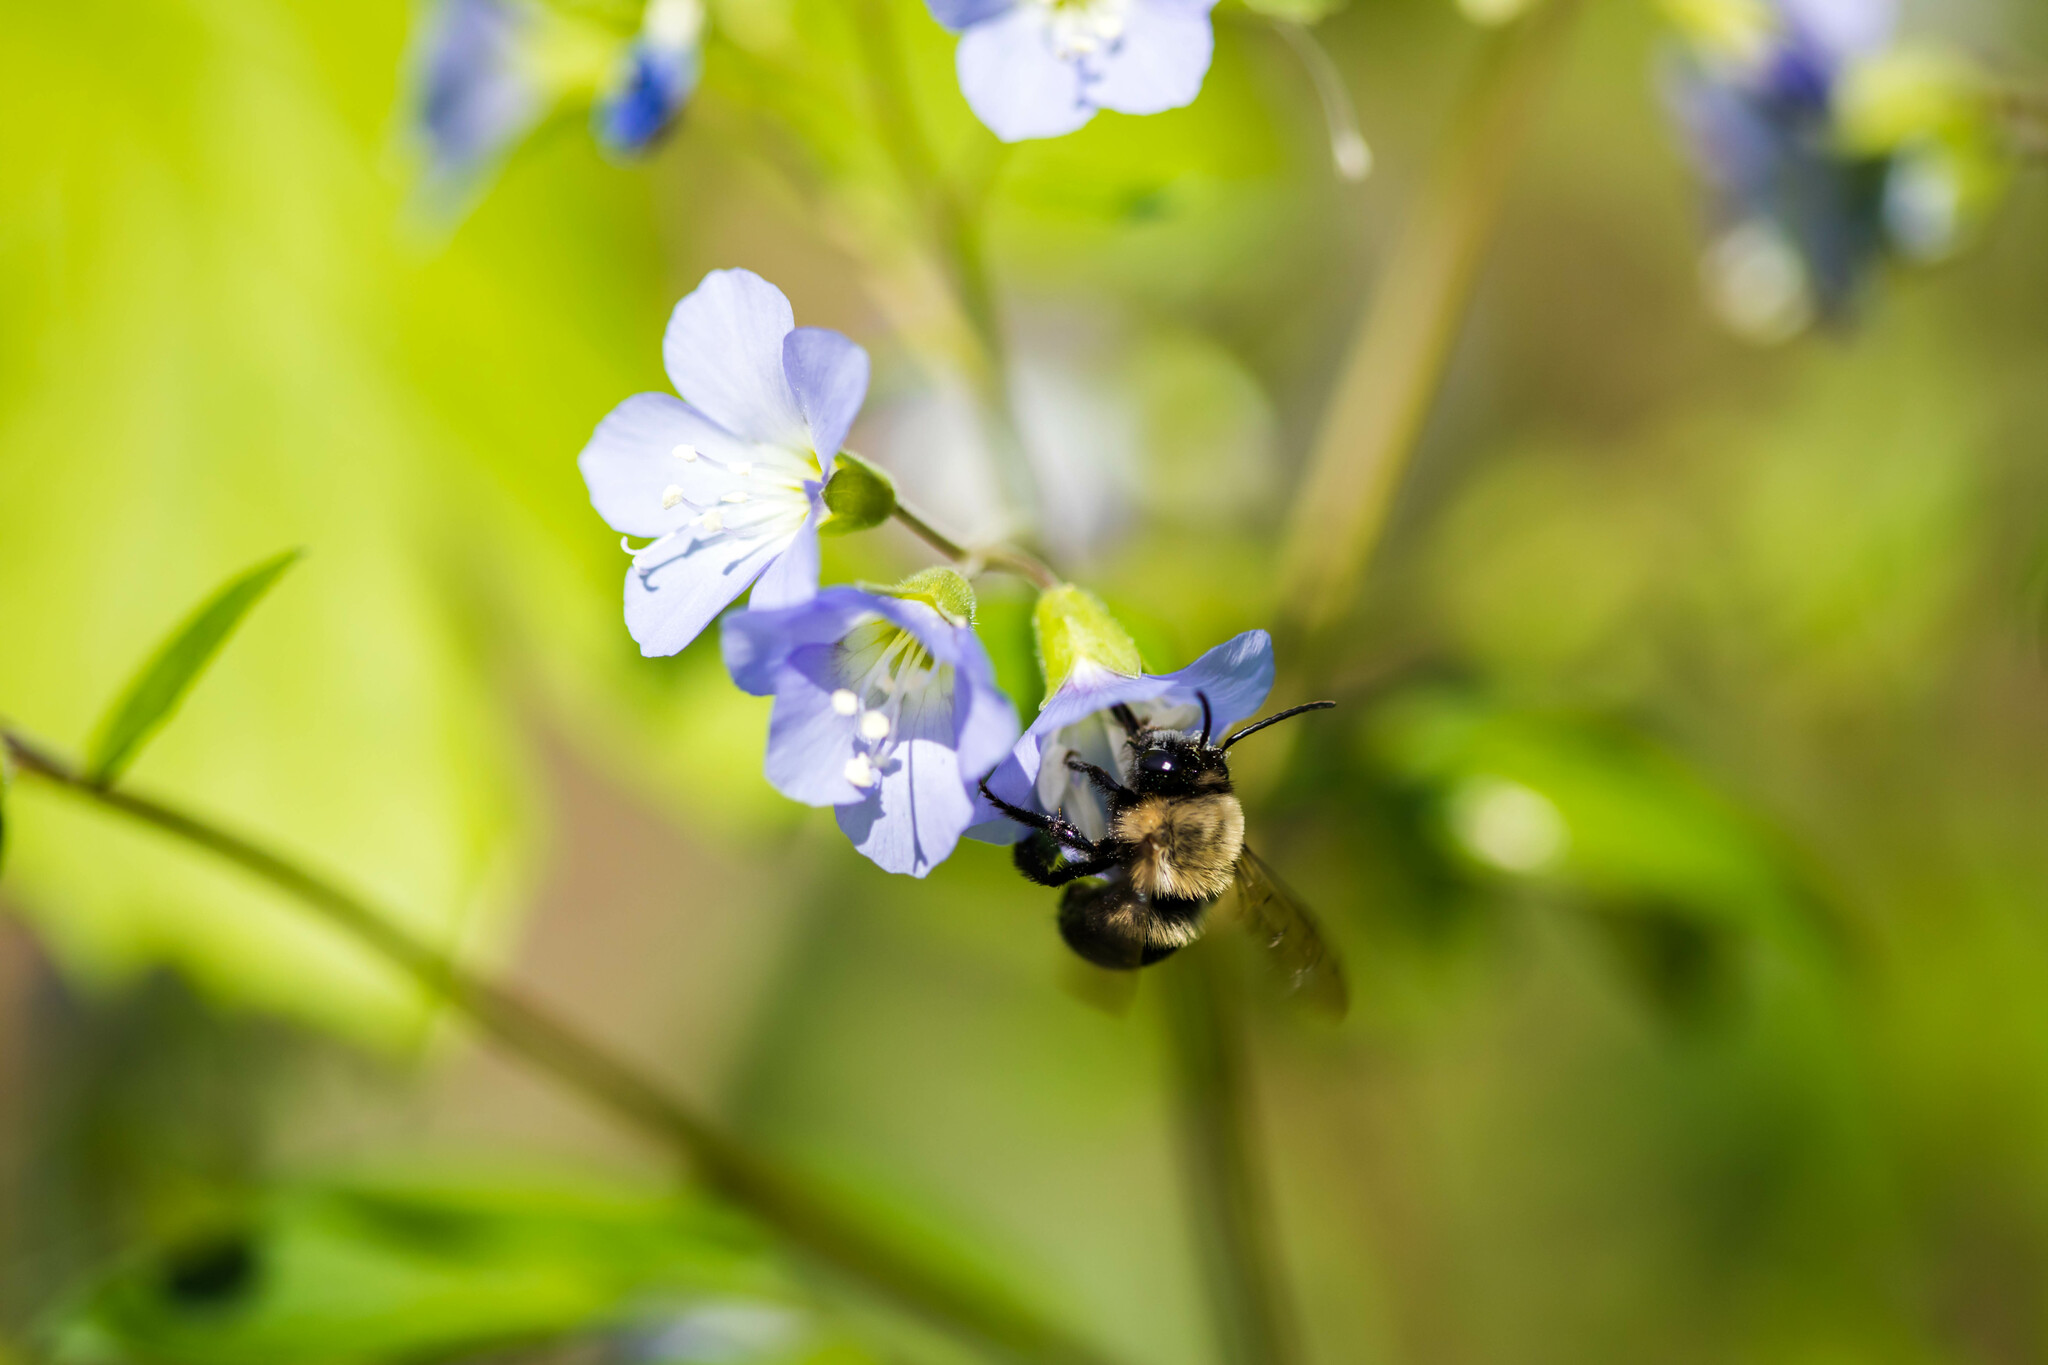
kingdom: Animalia
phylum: Arthropoda
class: Insecta
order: Hymenoptera
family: Apidae
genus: Habropoda
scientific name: Habropoda laboriosa
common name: Southeastern blueberry bee
